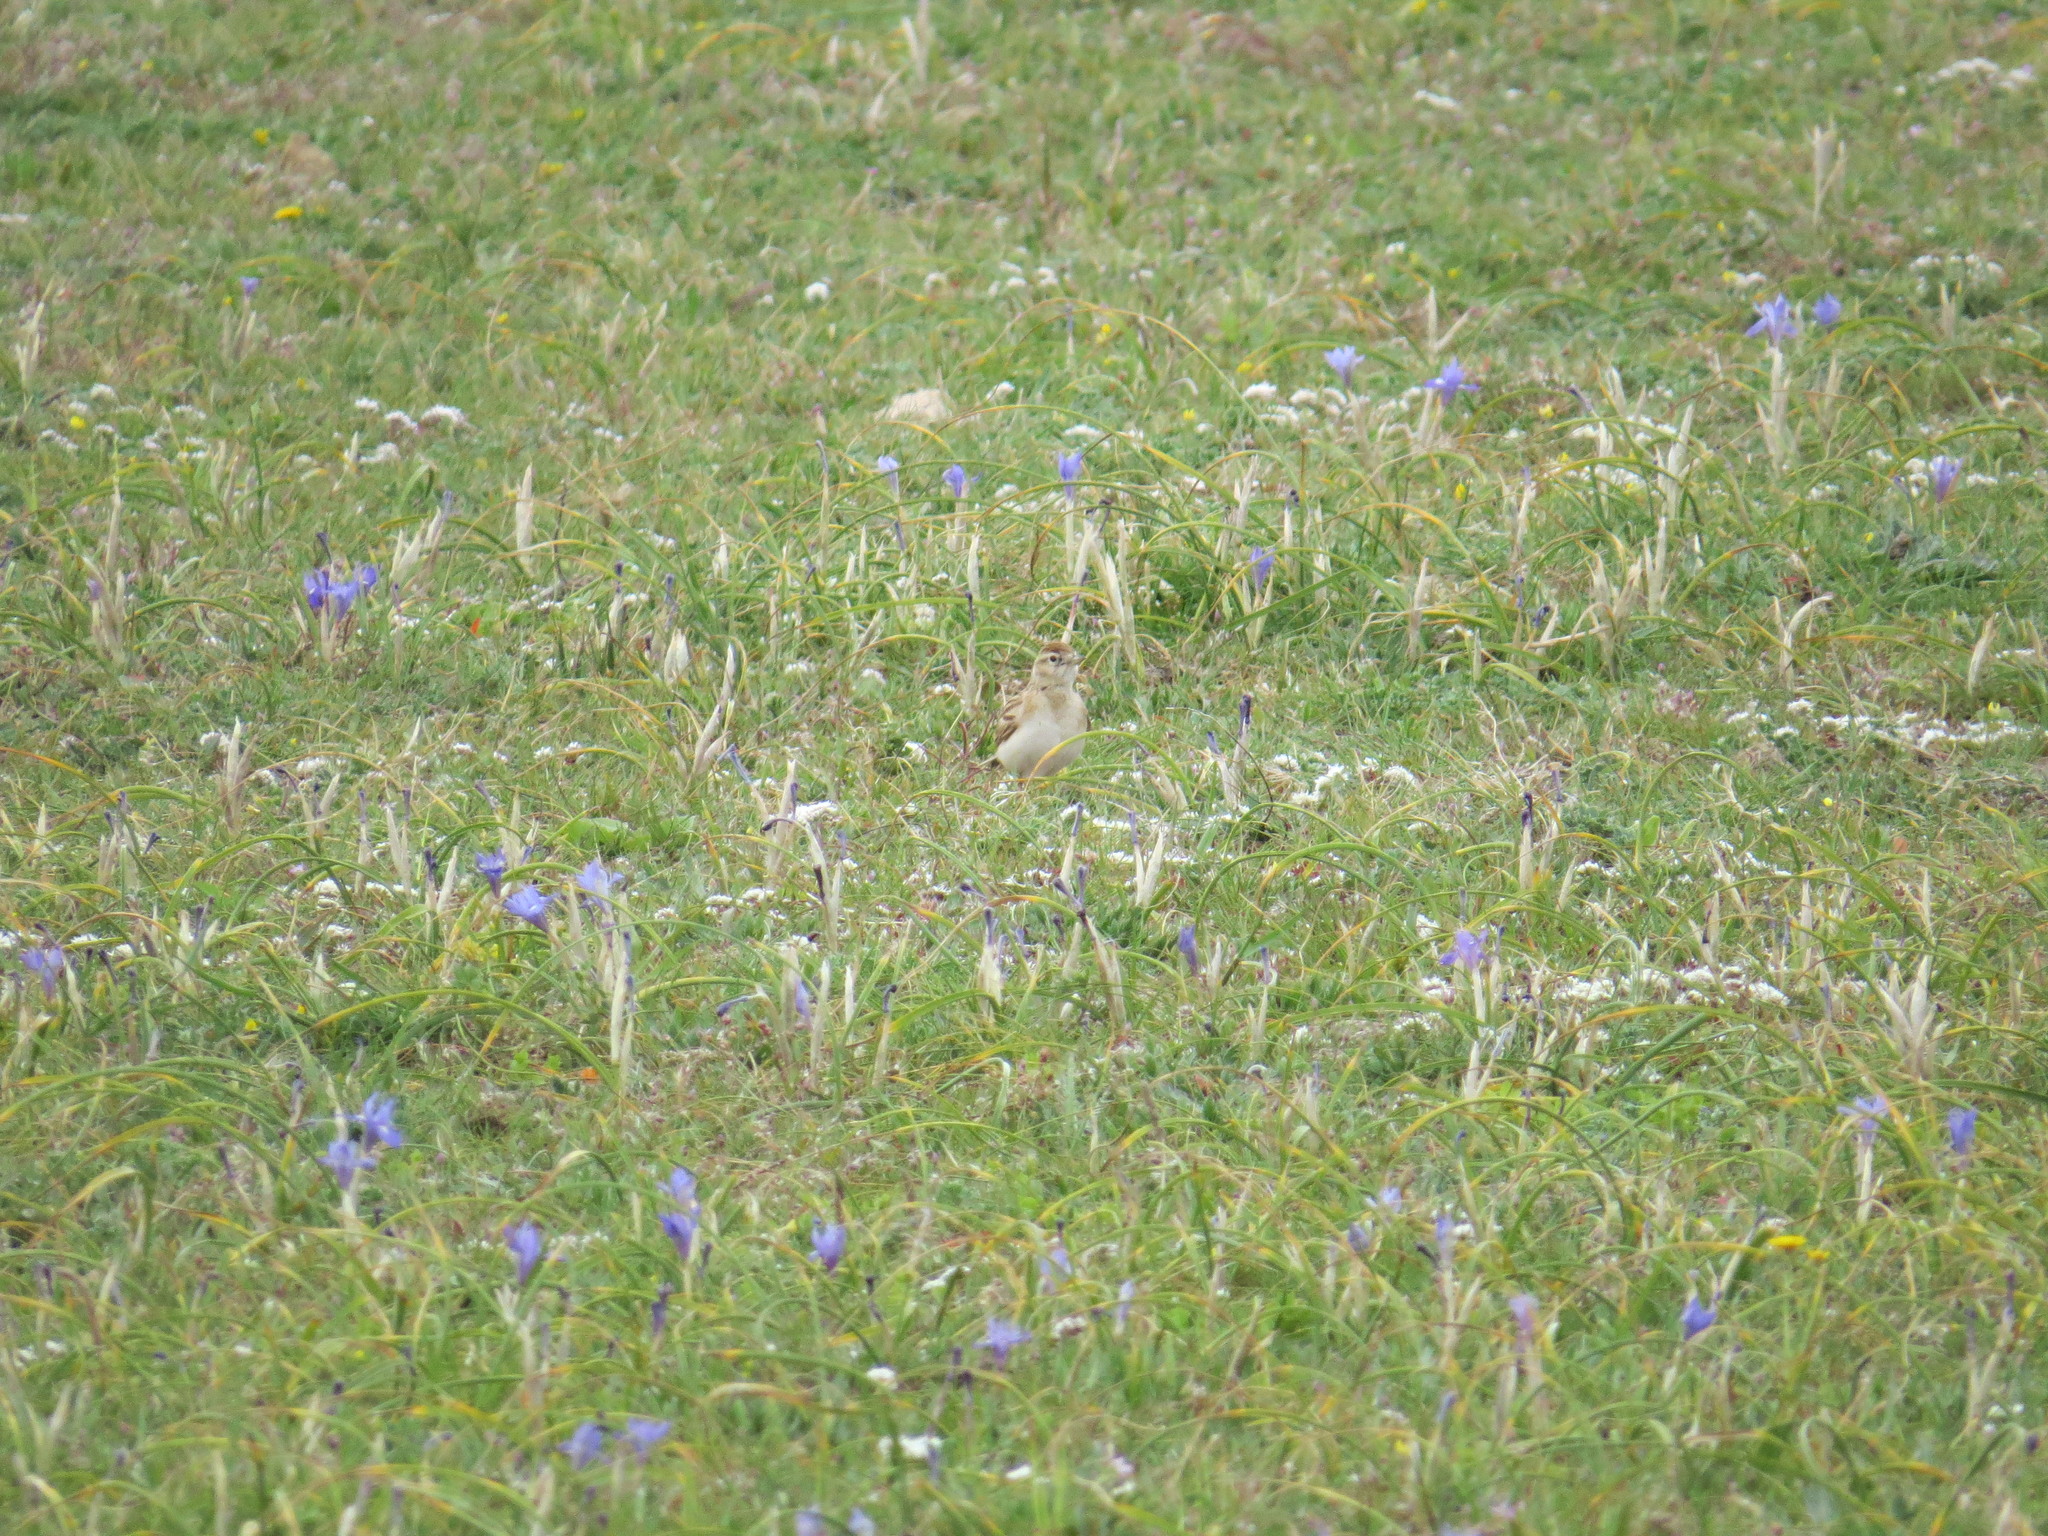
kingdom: Animalia
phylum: Chordata
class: Aves
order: Passeriformes
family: Alaudidae
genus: Calandrella
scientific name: Calandrella brachydactyla
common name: Greater short-toed lark
